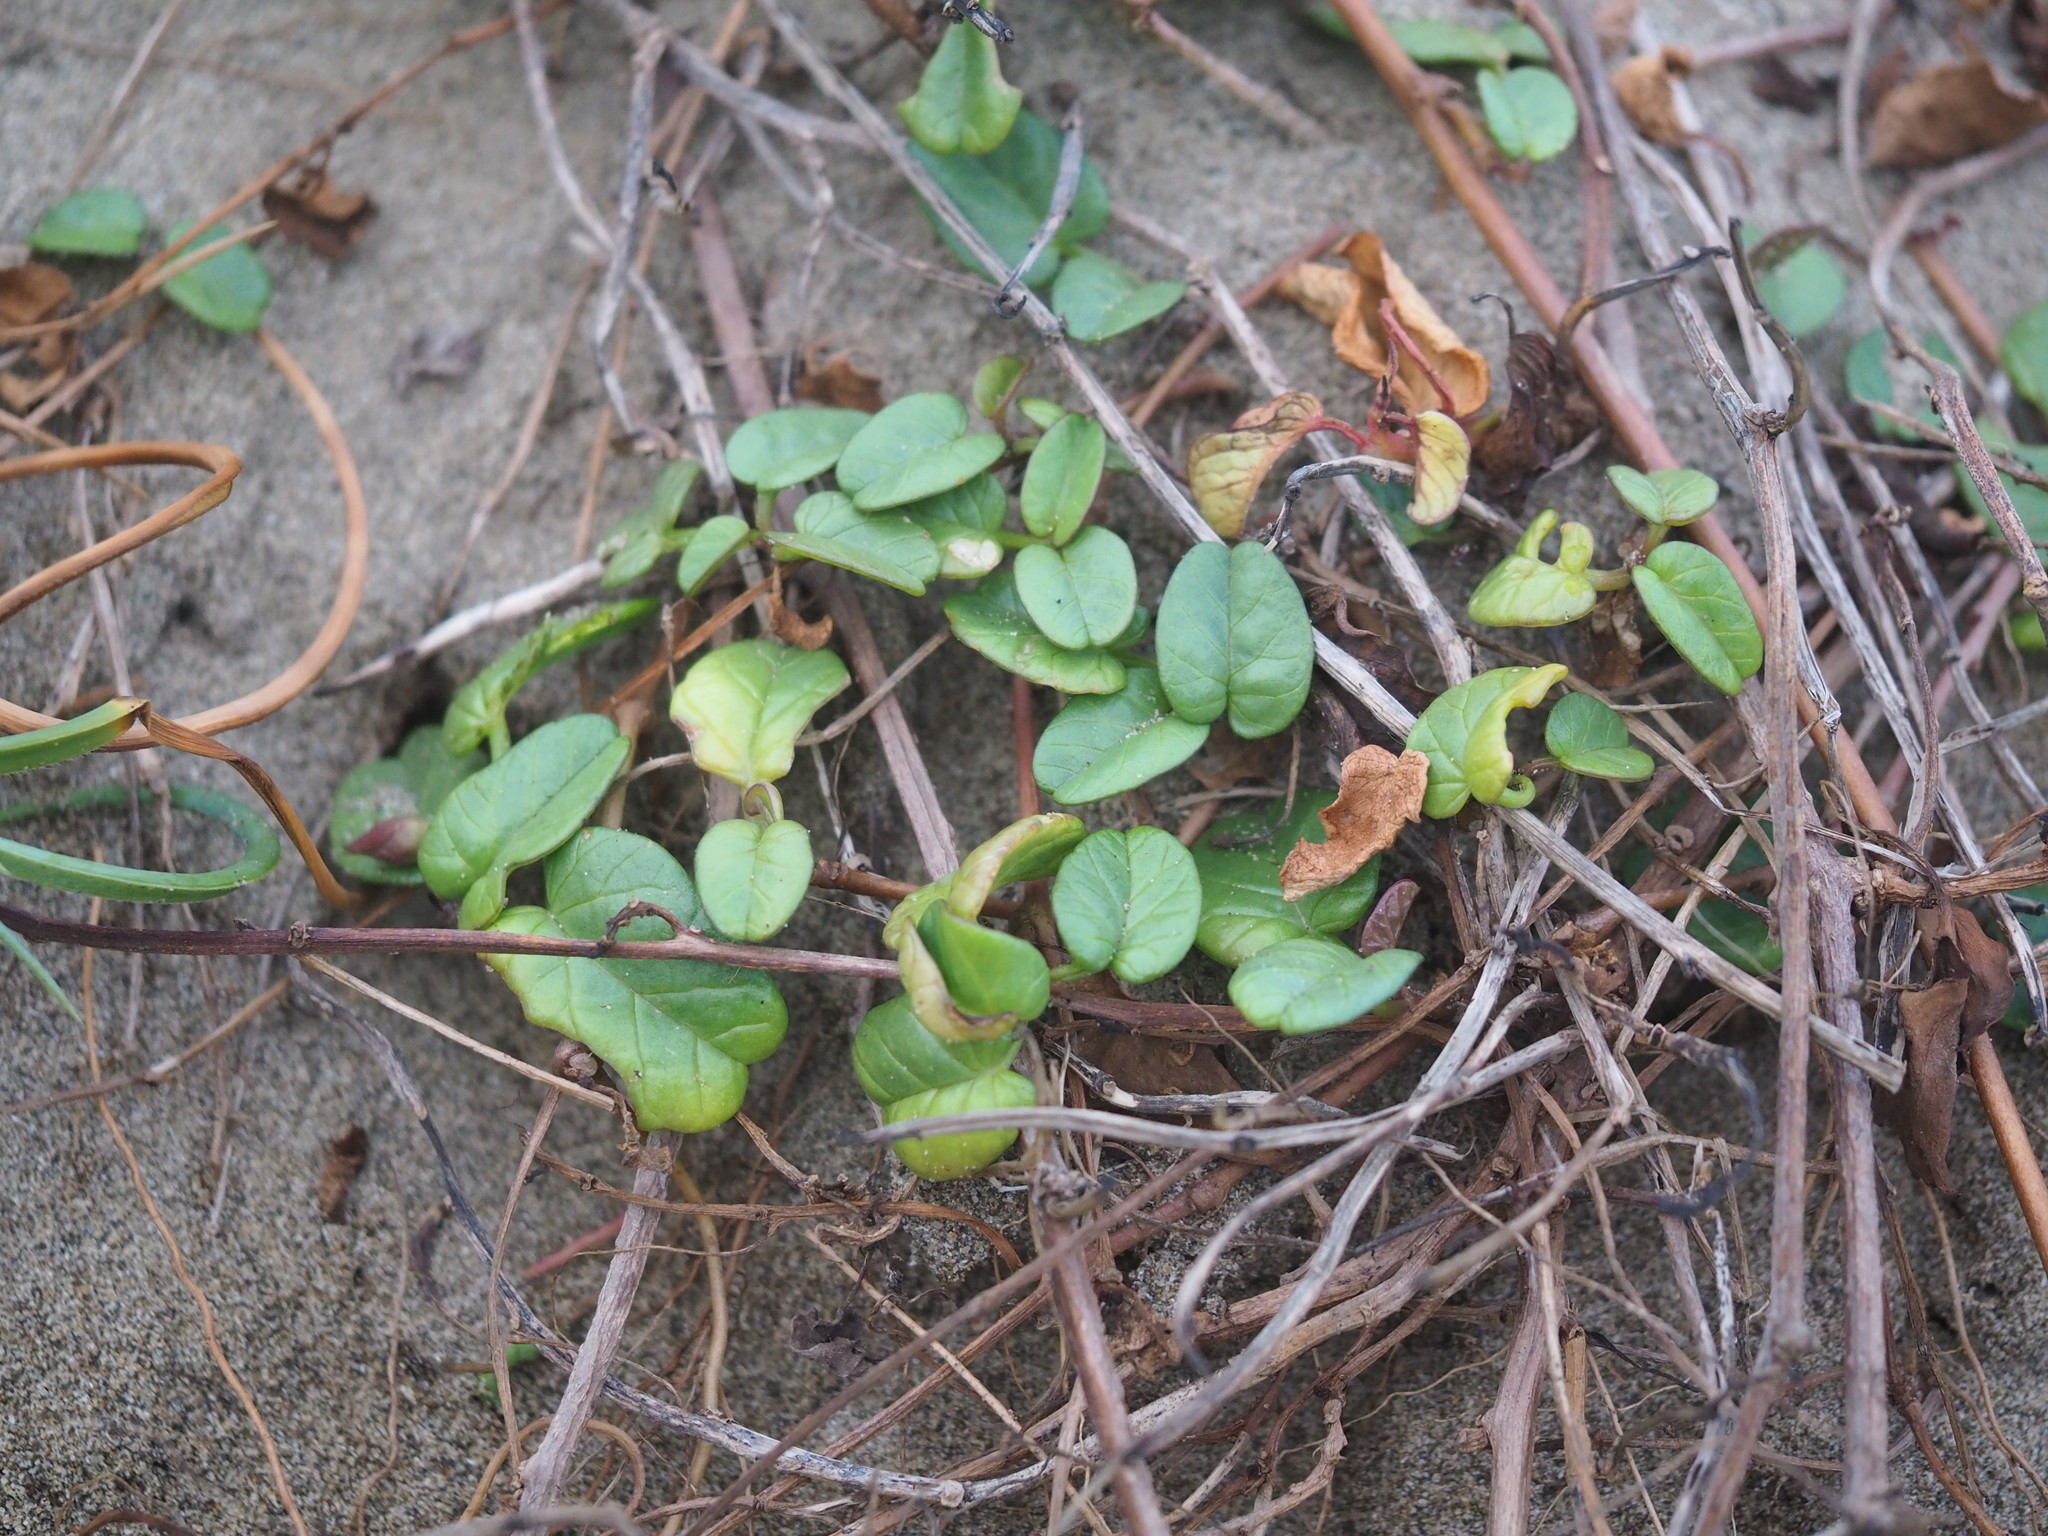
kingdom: Plantae
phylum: Tracheophyta
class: Magnoliopsida
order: Solanales
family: Convolvulaceae
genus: Ipomoea
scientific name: Ipomoea imperati
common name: Fiddle-leaf morning-glory
